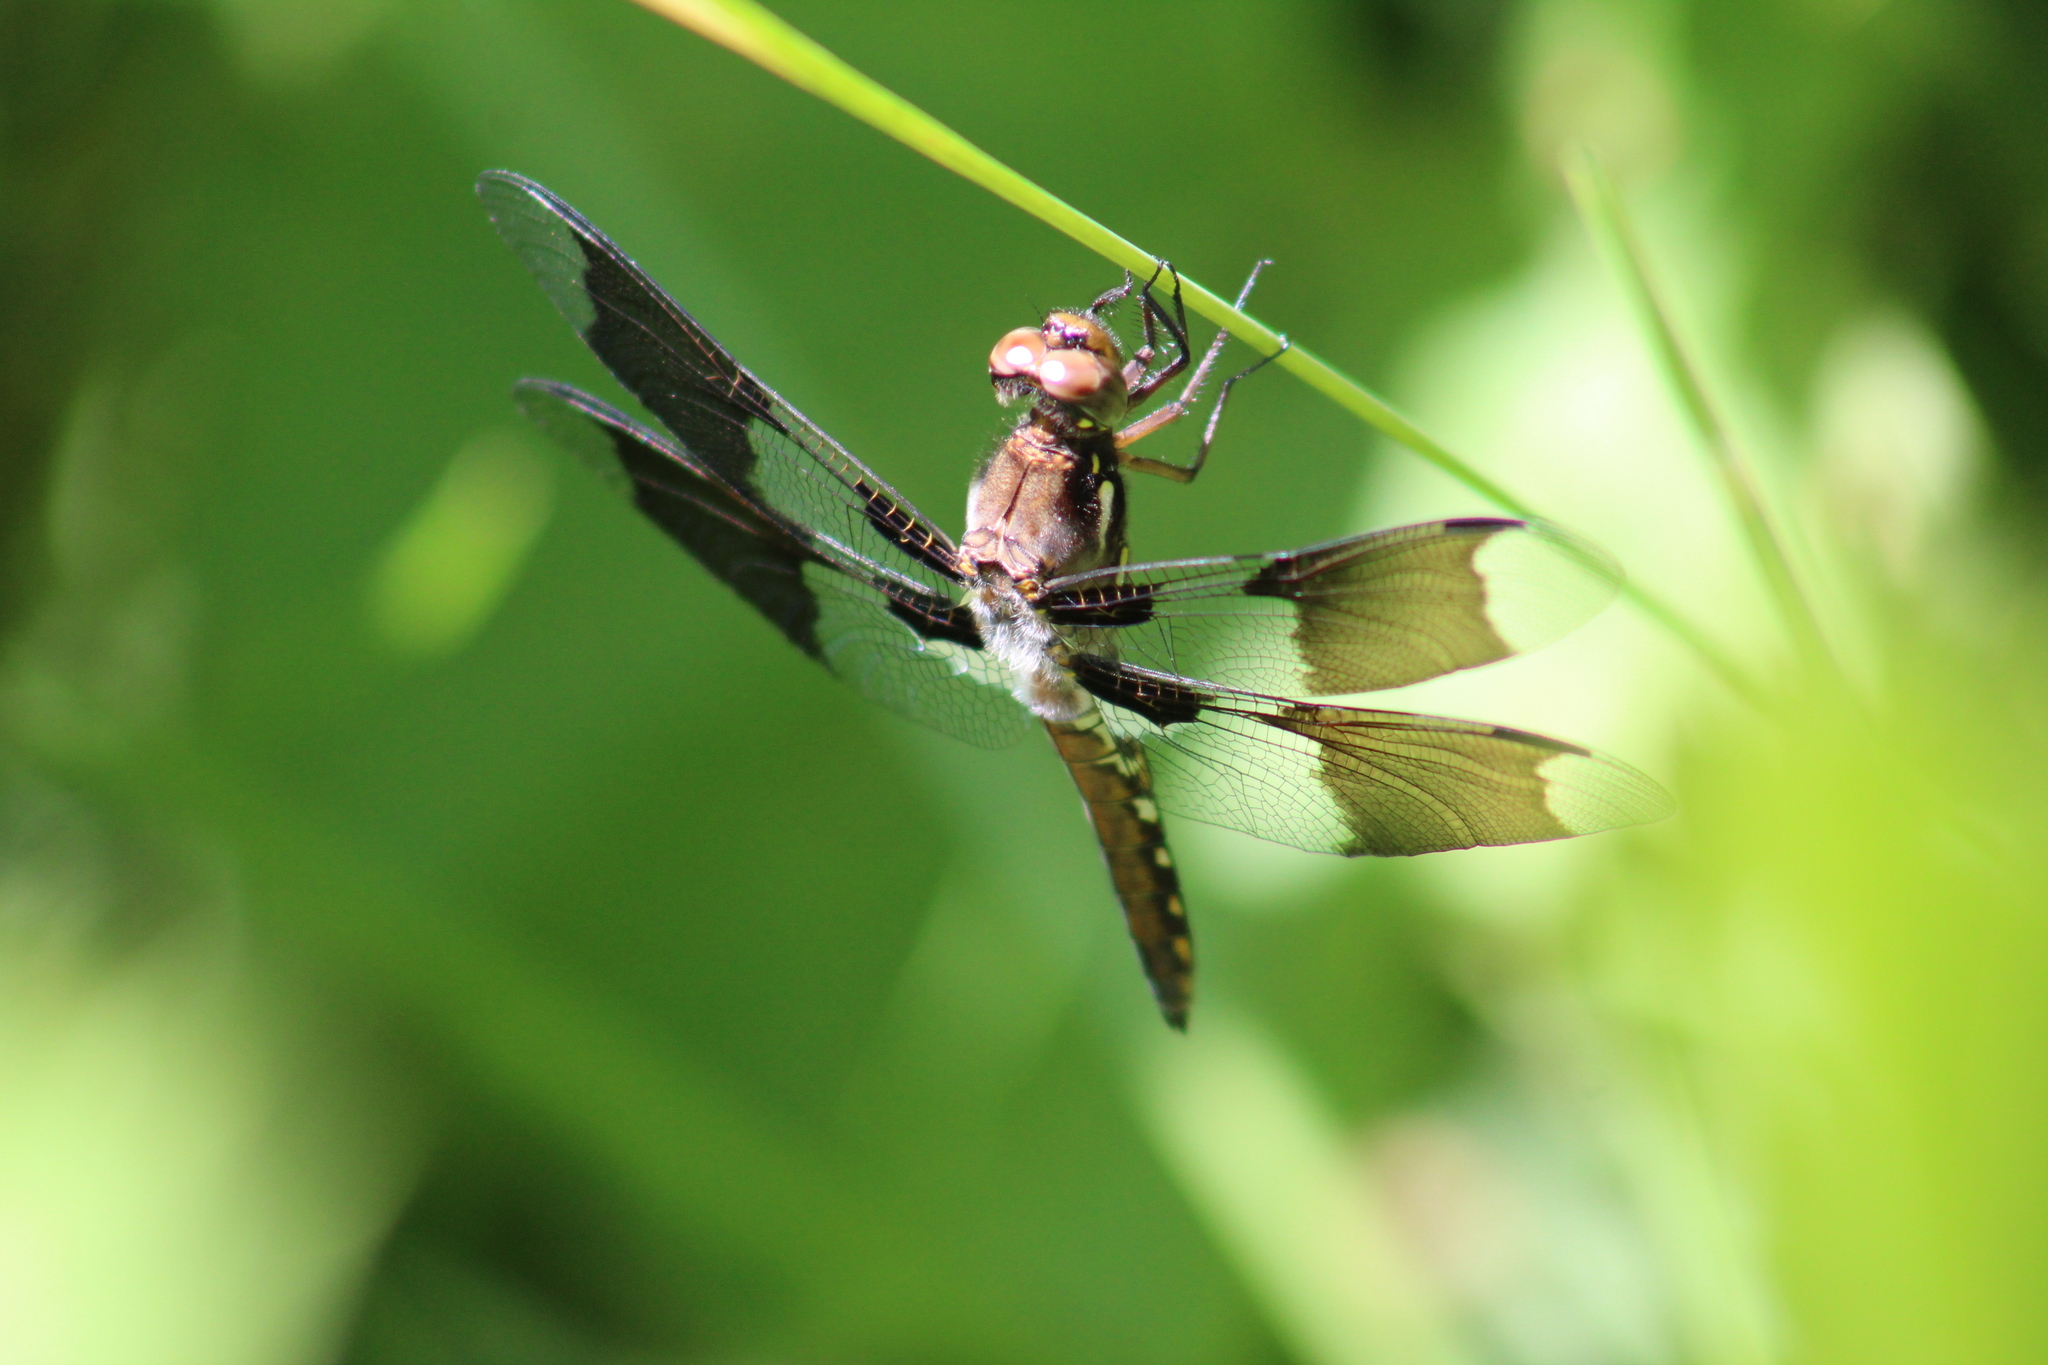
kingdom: Animalia
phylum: Arthropoda
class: Insecta
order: Odonata
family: Libellulidae
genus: Plathemis
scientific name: Plathemis lydia
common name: Common whitetail
